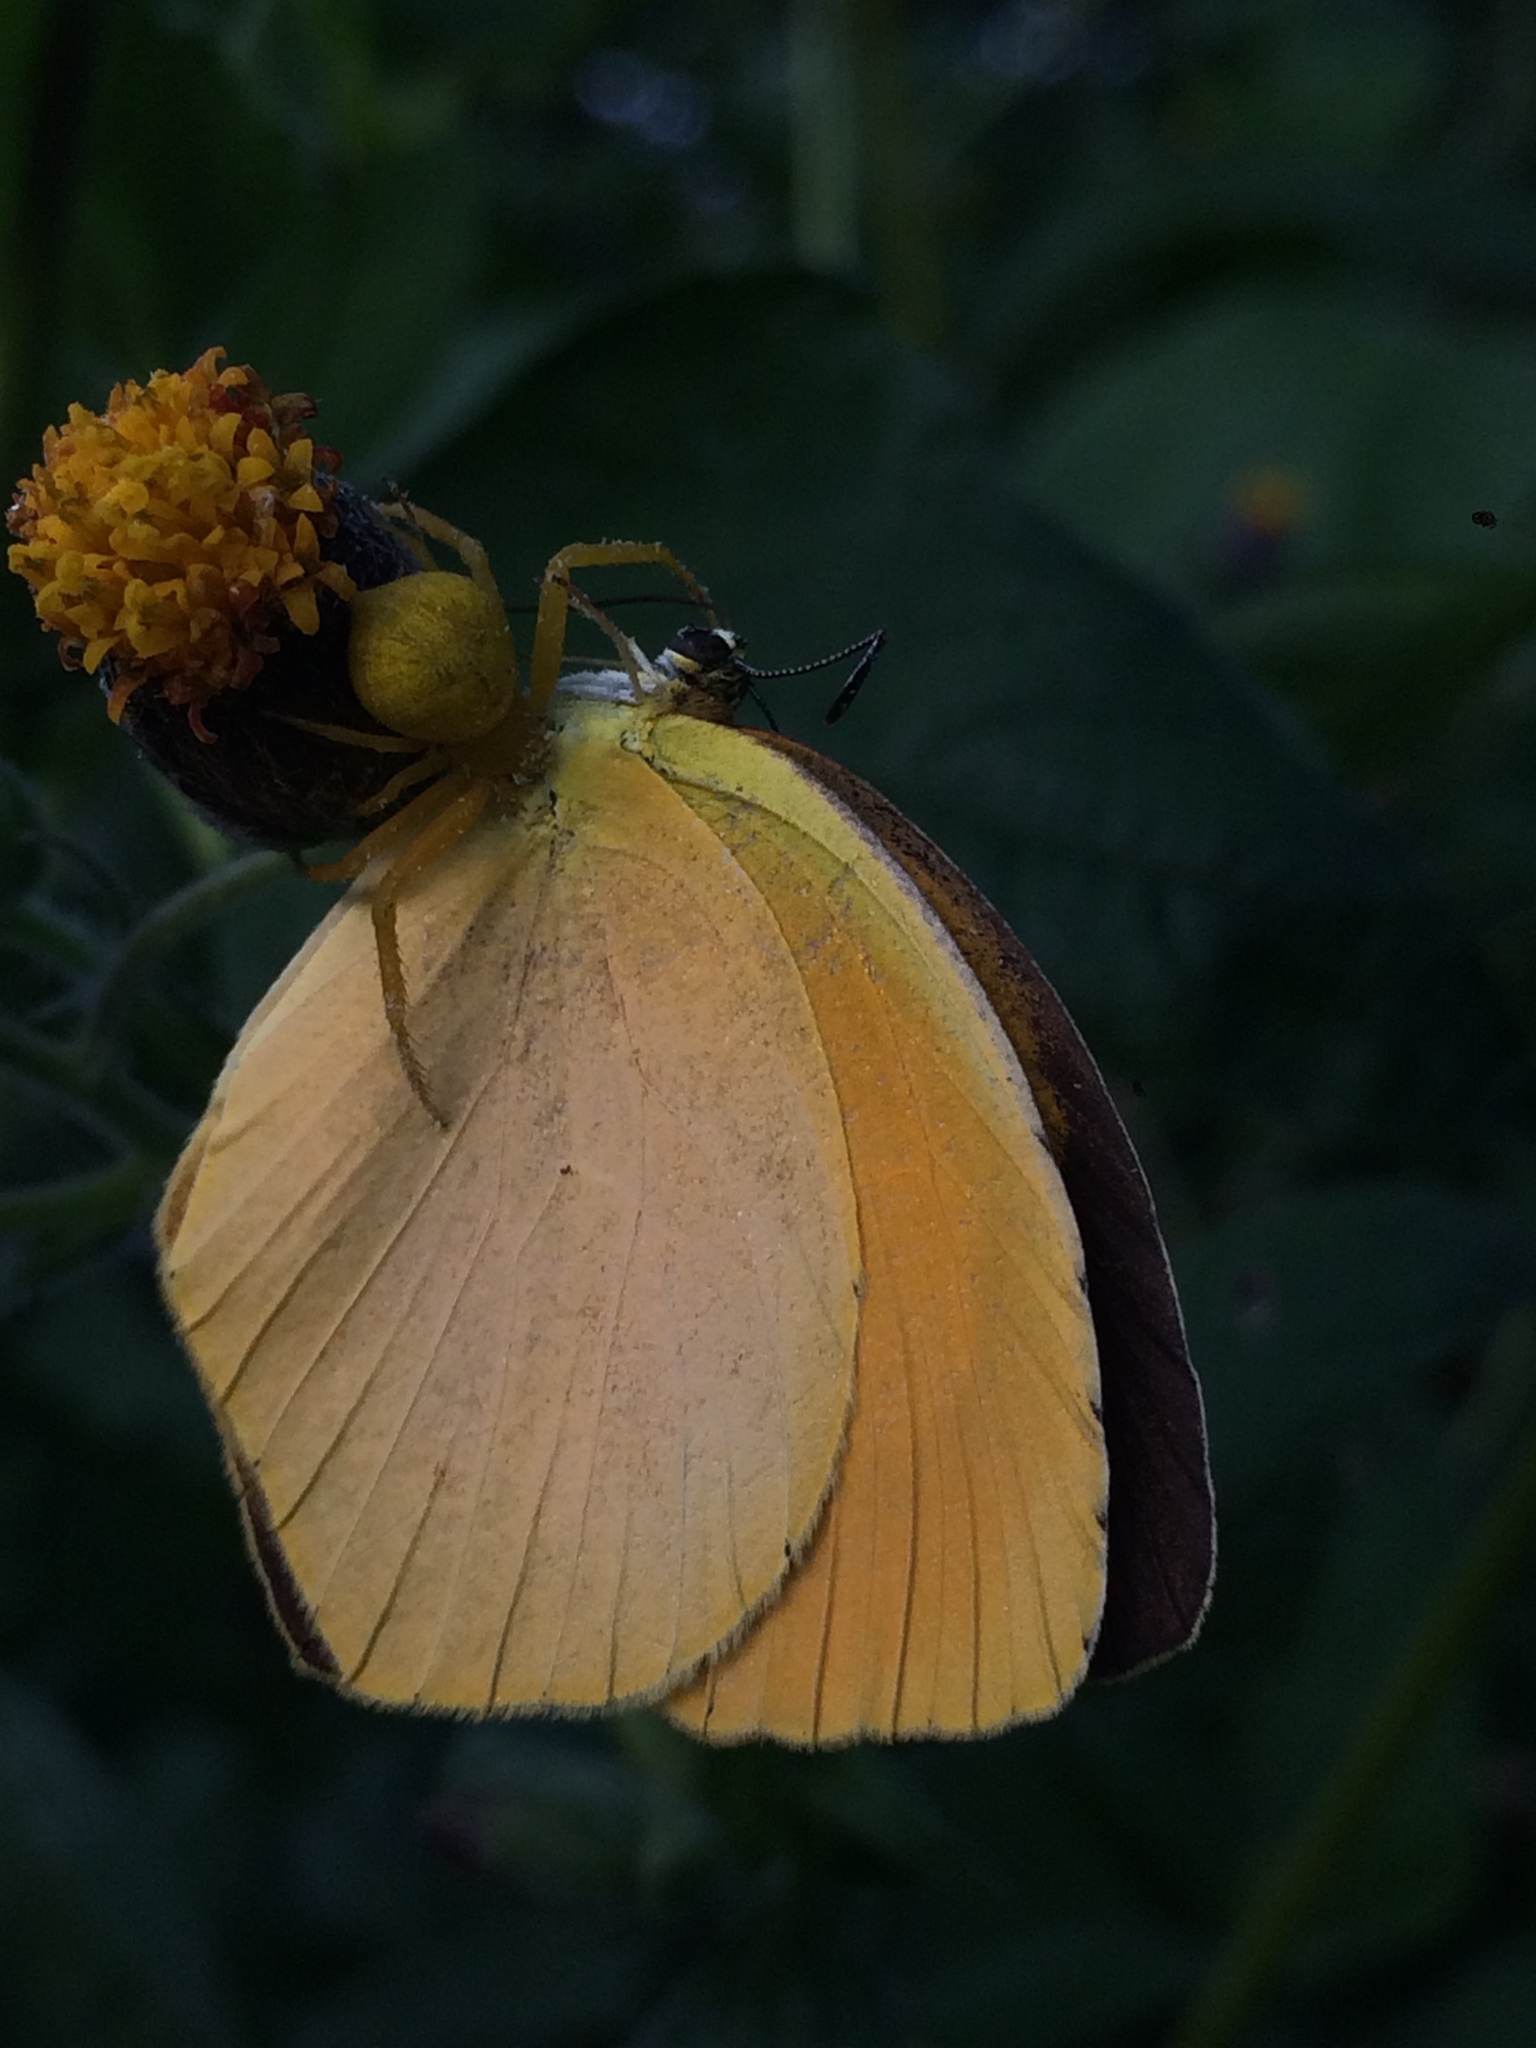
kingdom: Animalia
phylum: Arthropoda
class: Insecta
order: Lepidoptera
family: Pieridae
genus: Pyrisitia
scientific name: Pyrisitia proterpia
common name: Tailed orange
